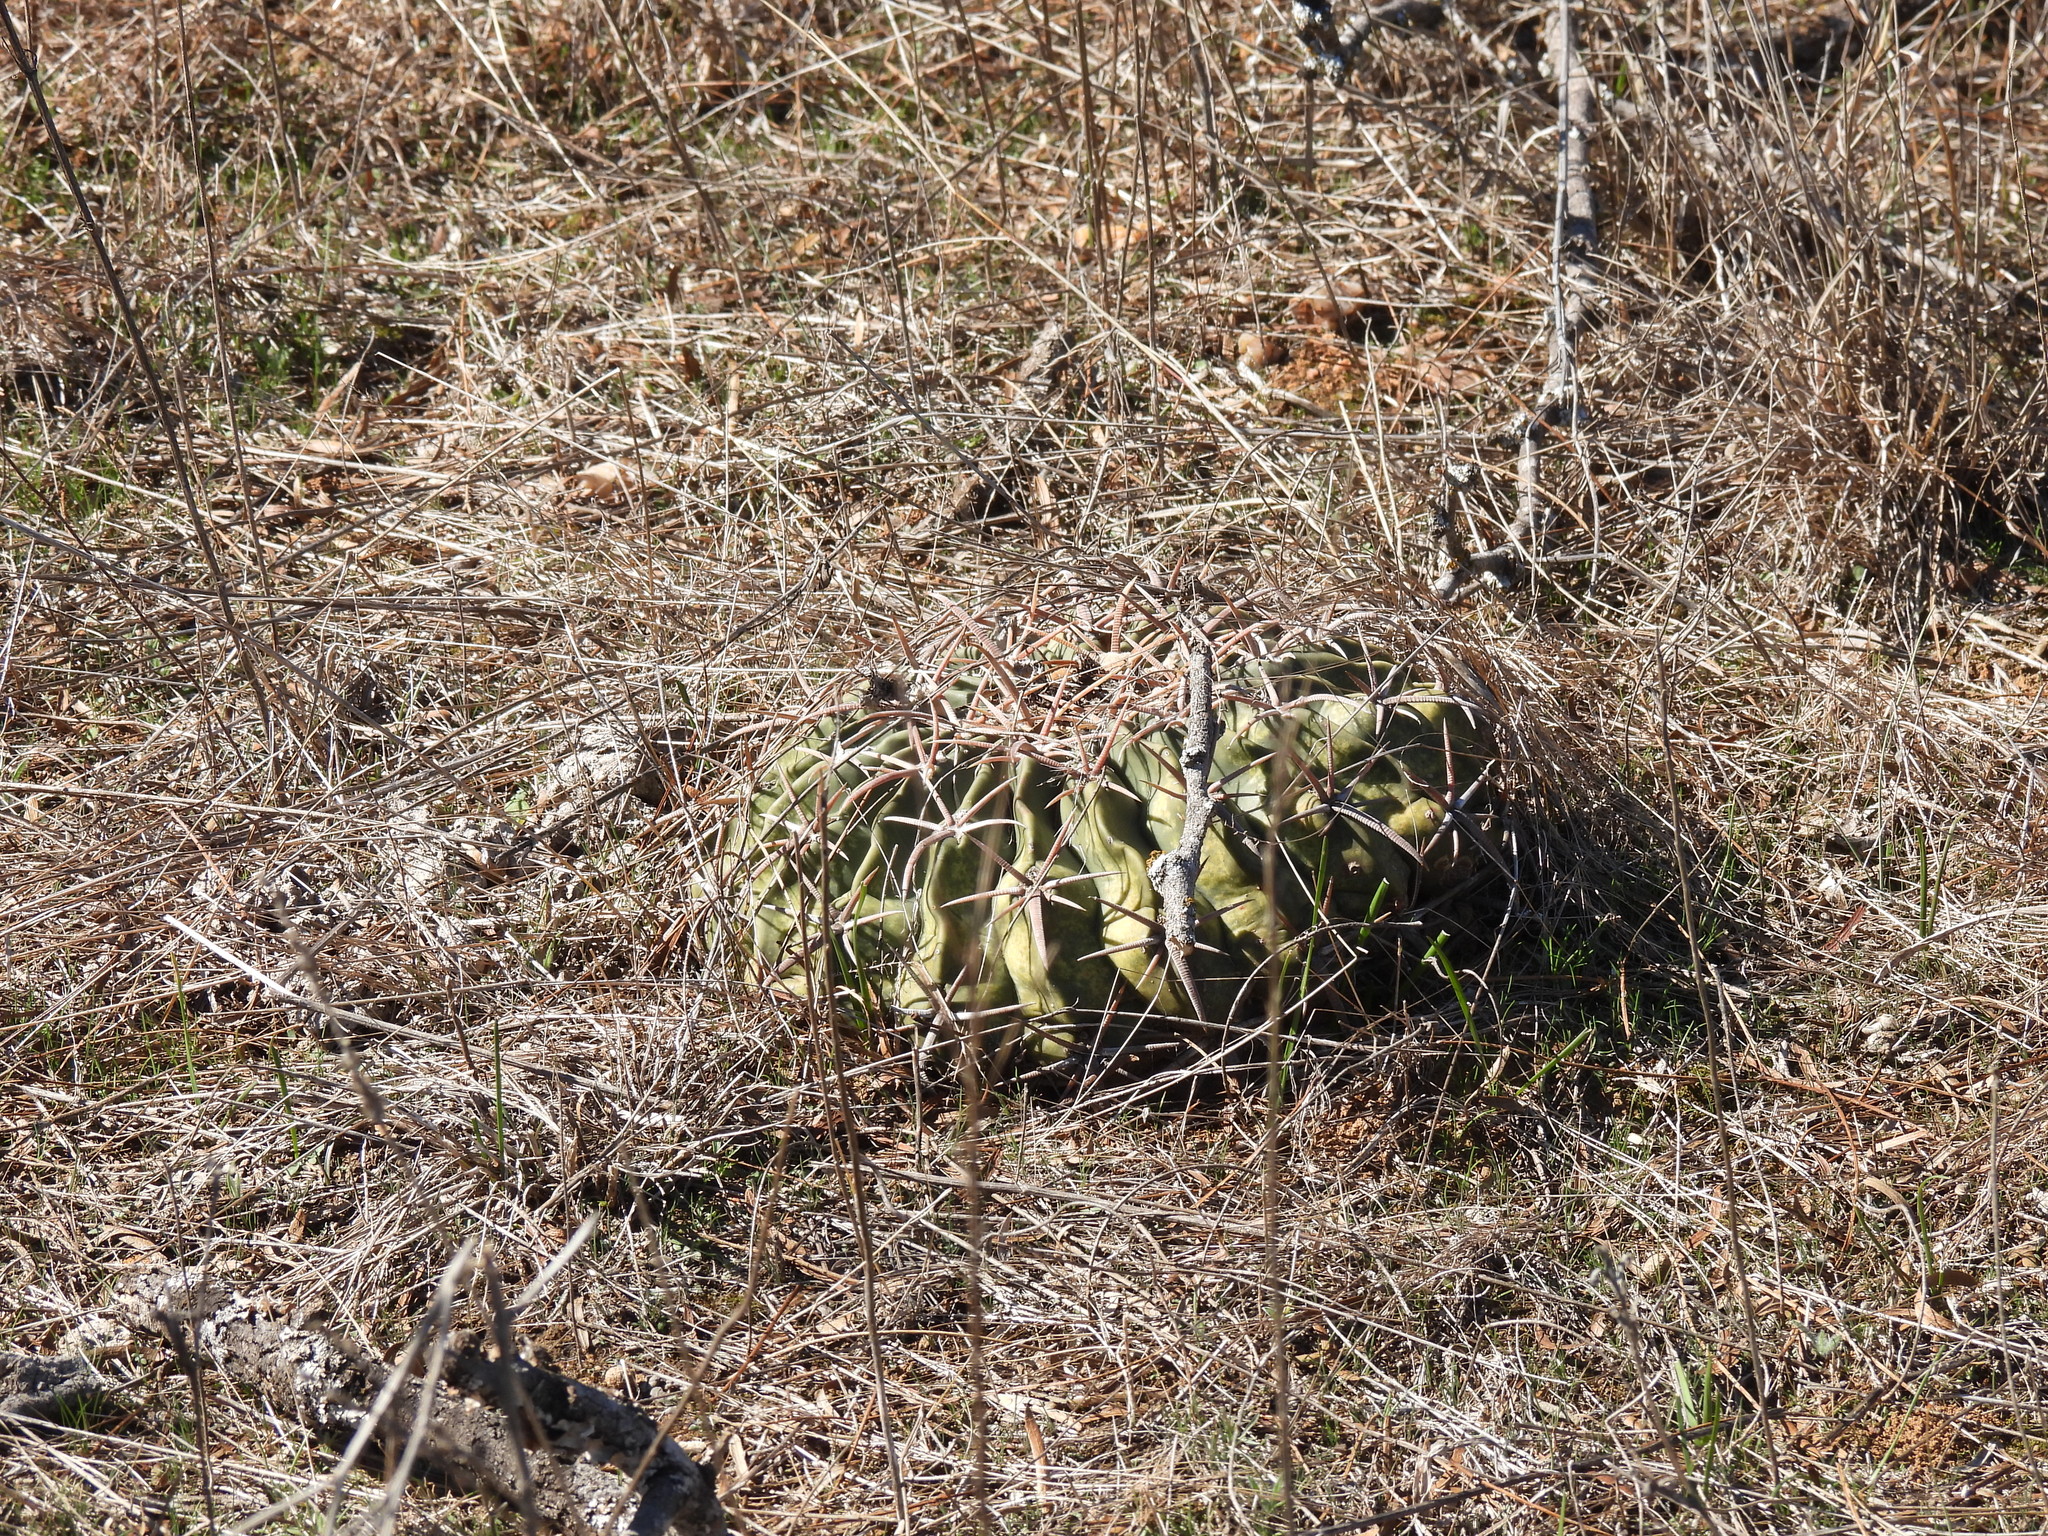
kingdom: Plantae
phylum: Tracheophyta
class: Magnoliopsida
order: Caryophyllales
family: Cactaceae
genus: Echinocactus
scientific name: Echinocactus texensis
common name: Devil's pincushion
